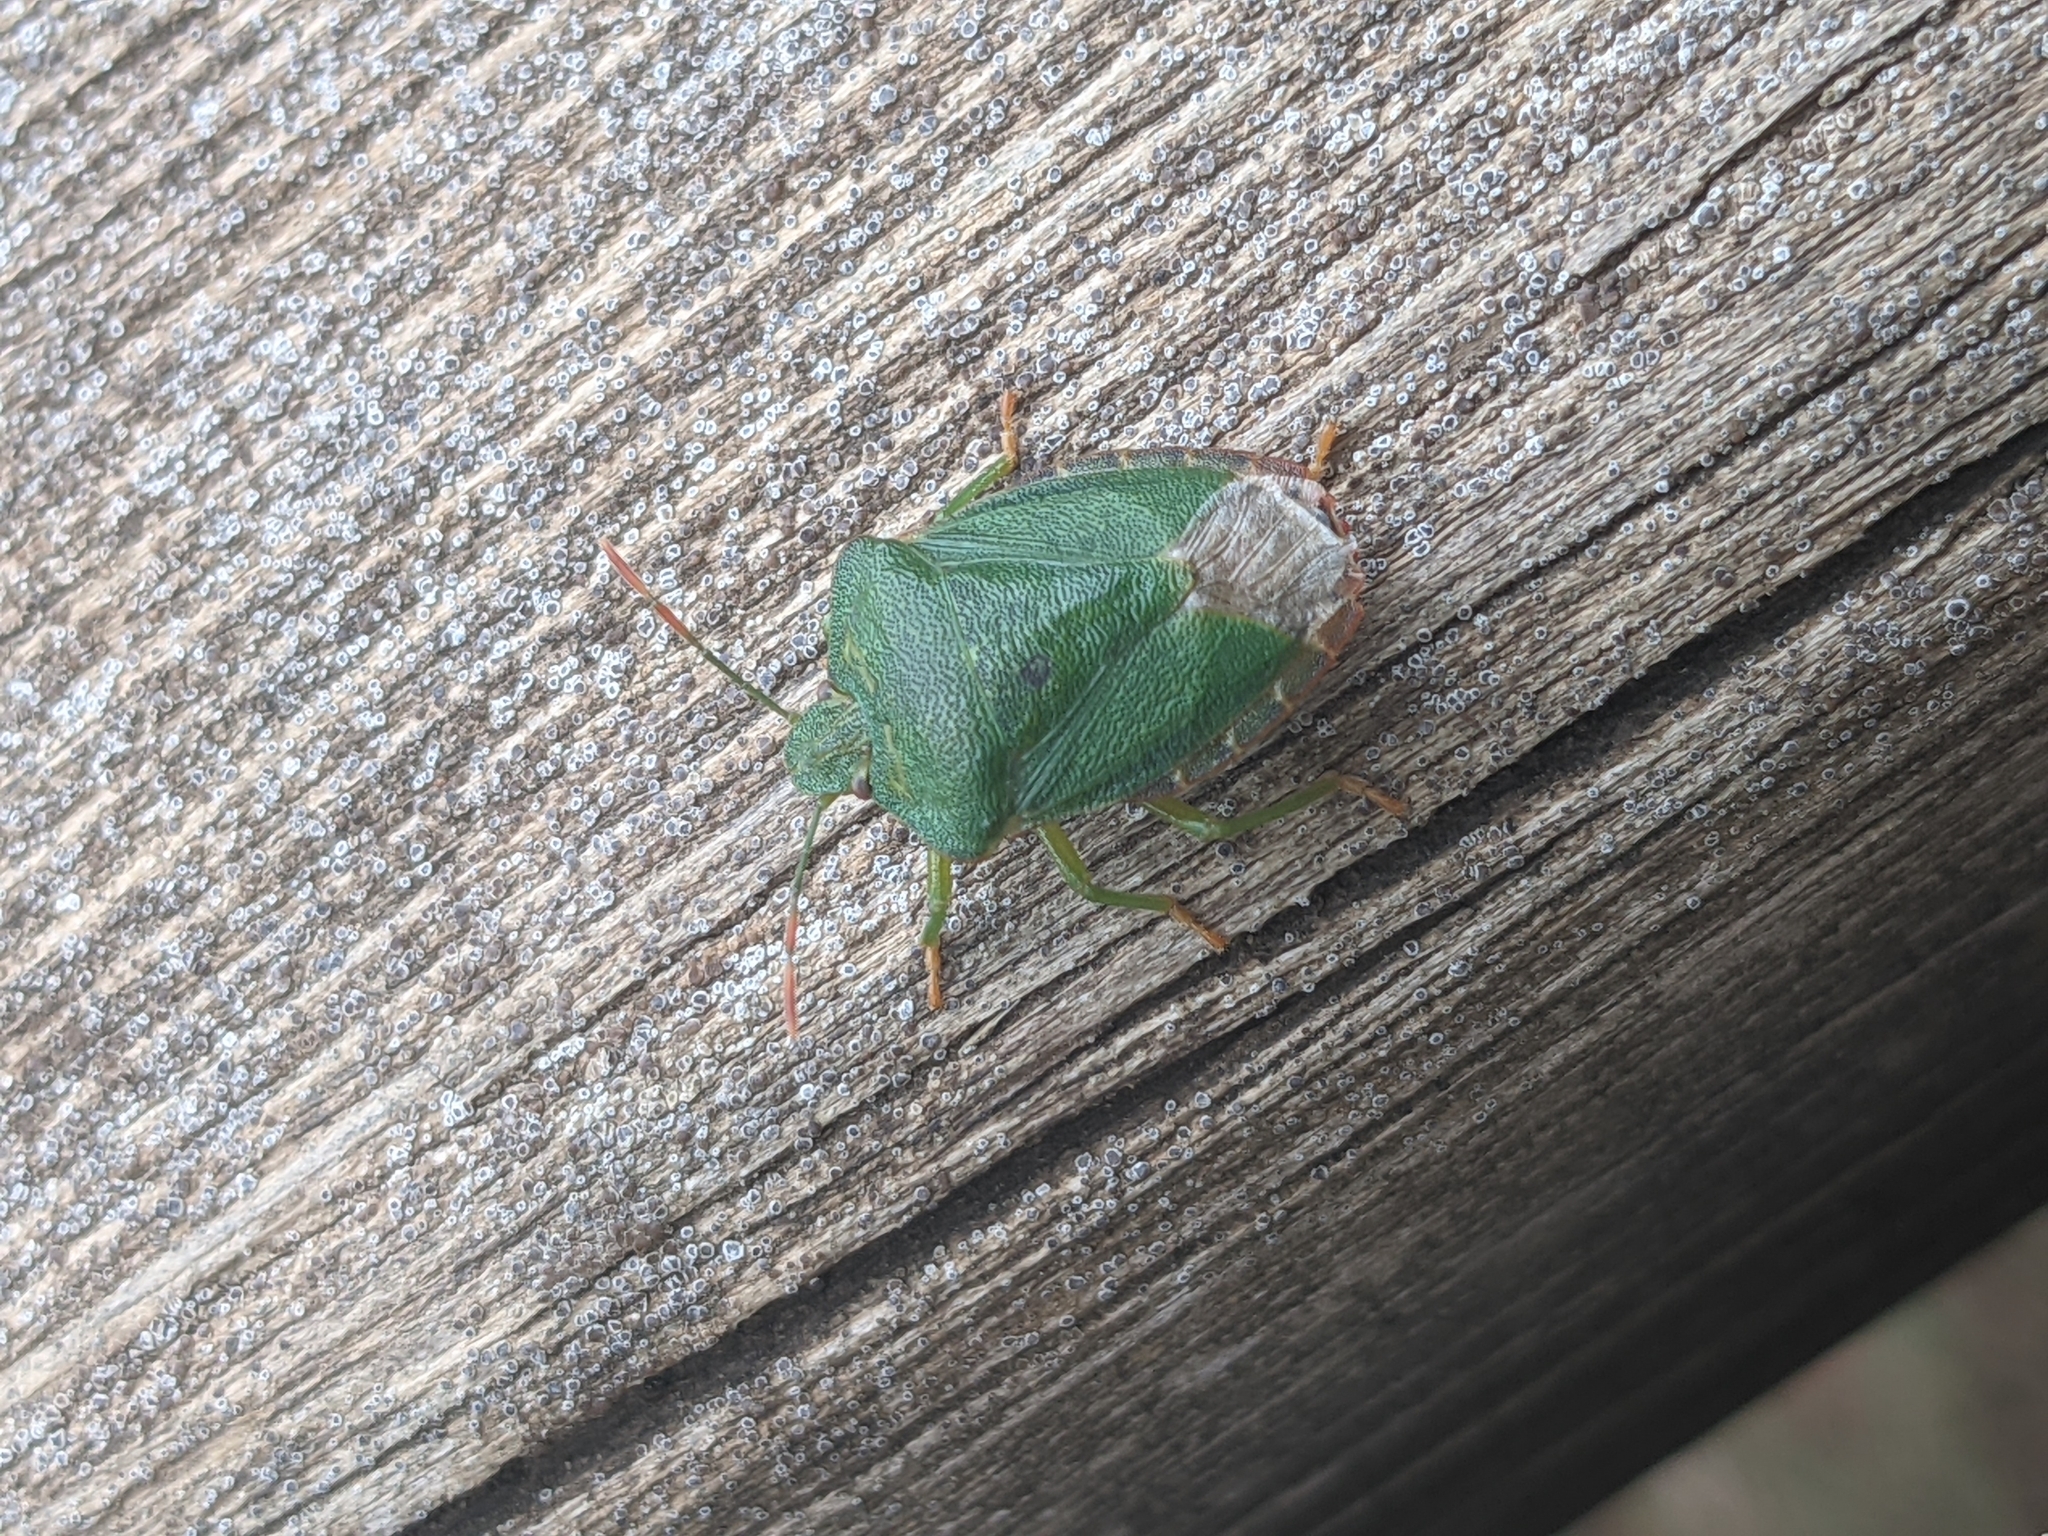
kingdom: Animalia
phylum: Arthropoda
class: Insecta
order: Hemiptera
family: Pentatomidae
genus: Palomena
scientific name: Palomena prasina
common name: Green shieldbug
